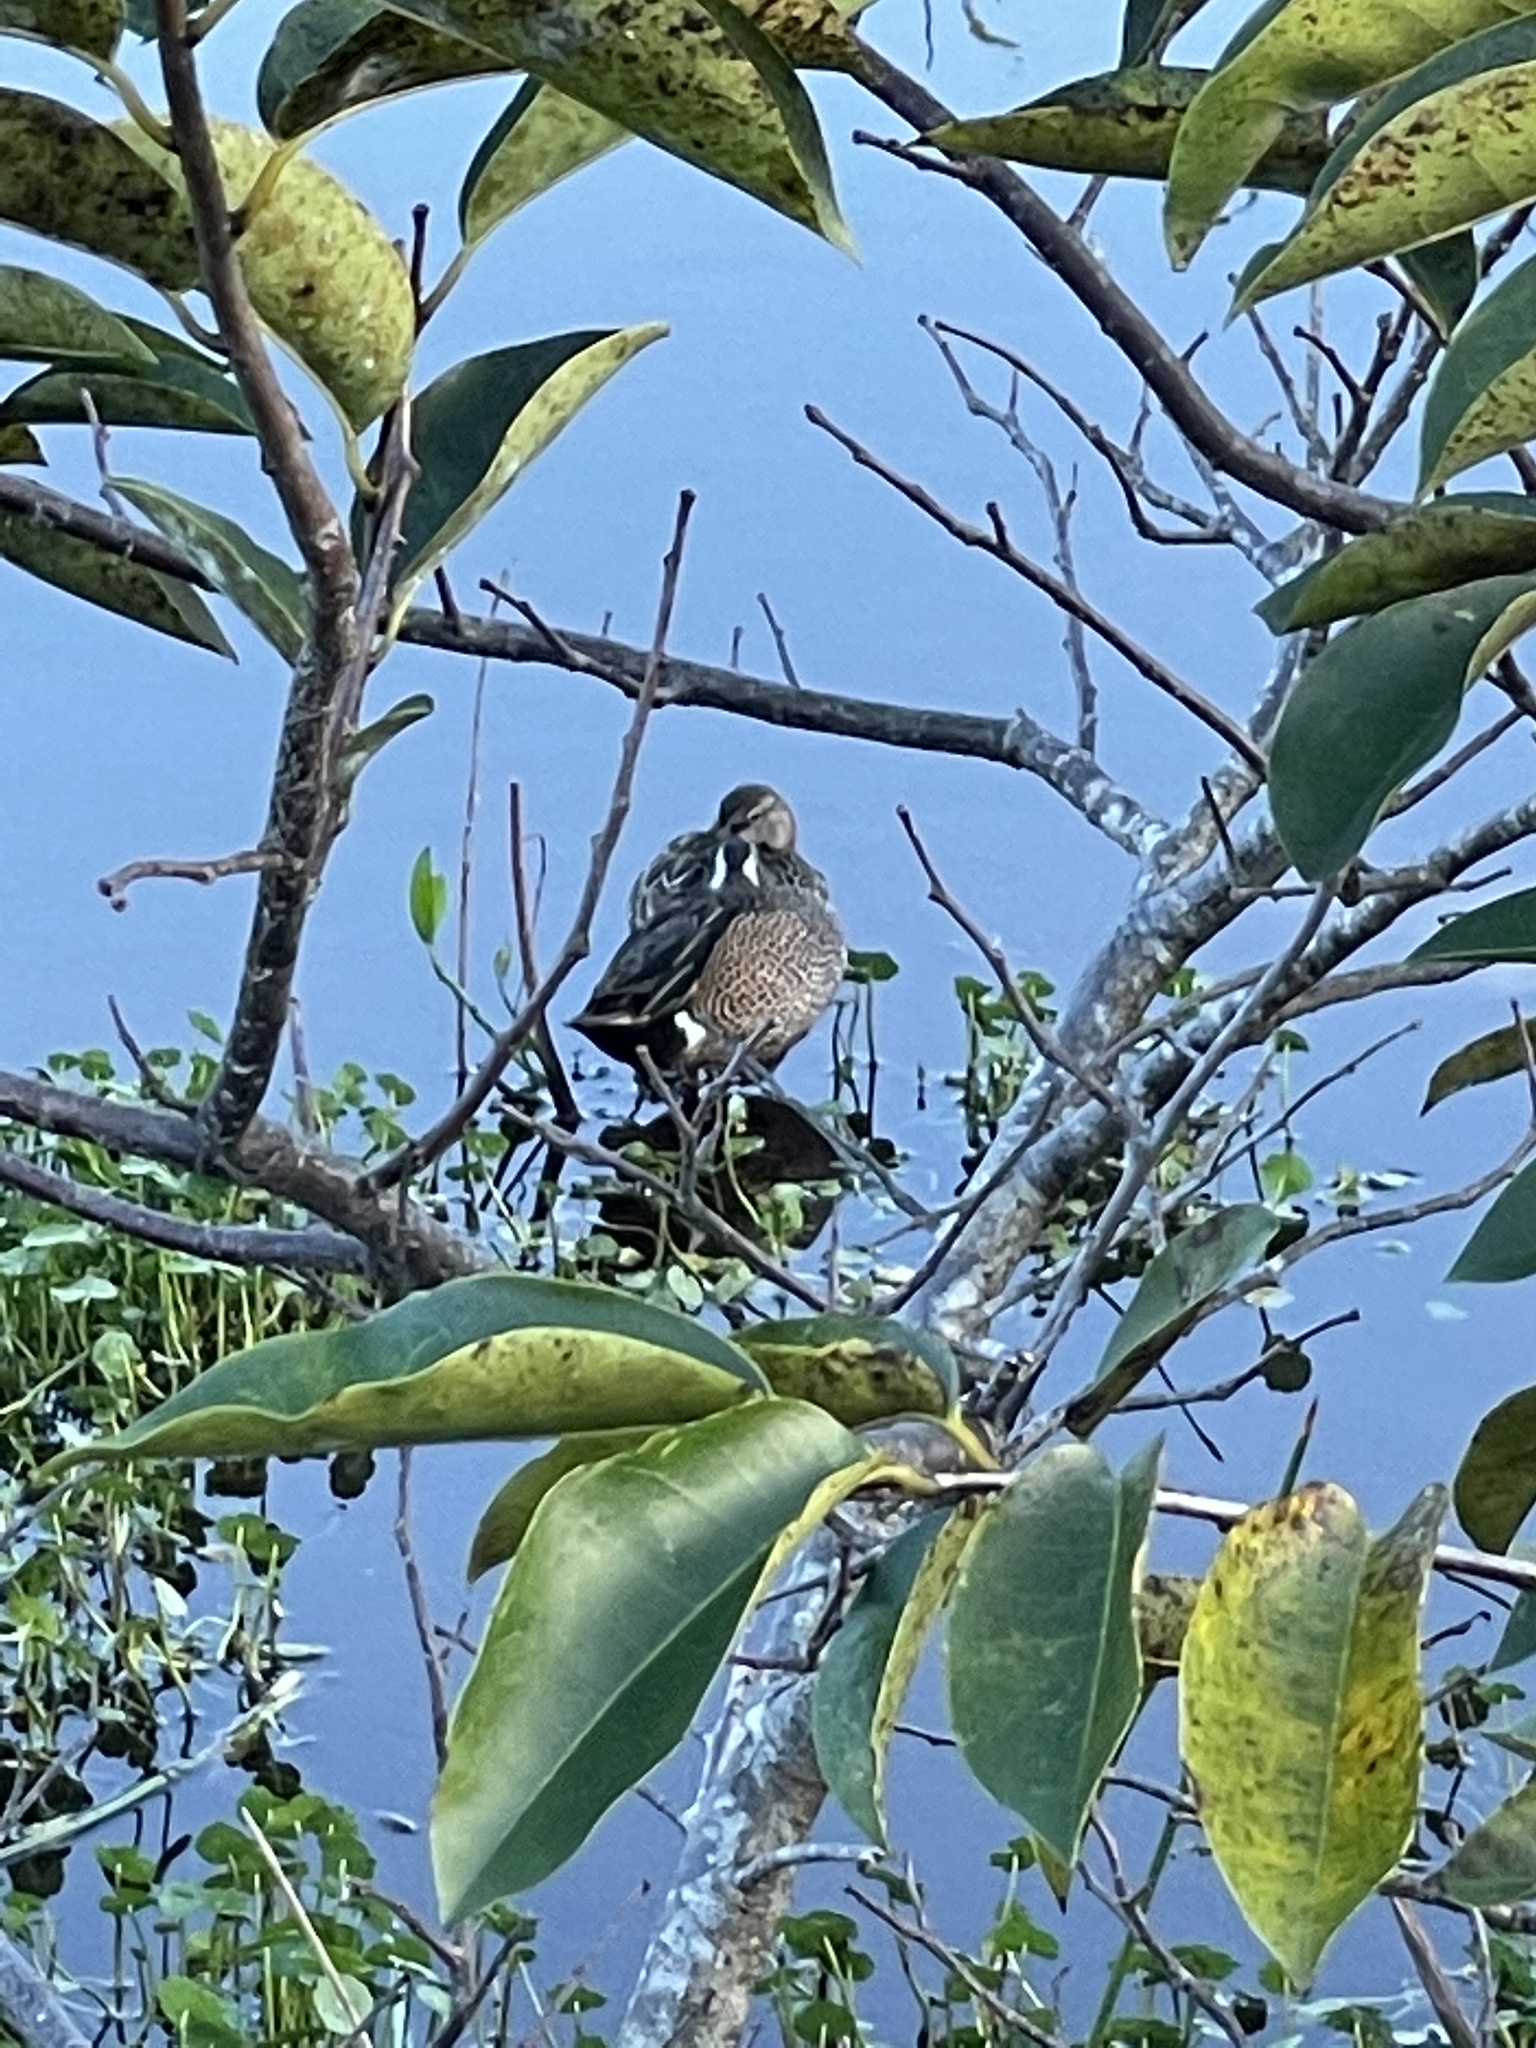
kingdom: Animalia
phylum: Chordata
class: Aves
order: Anseriformes
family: Anatidae
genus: Spatula
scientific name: Spatula discors
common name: Blue-winged teal
